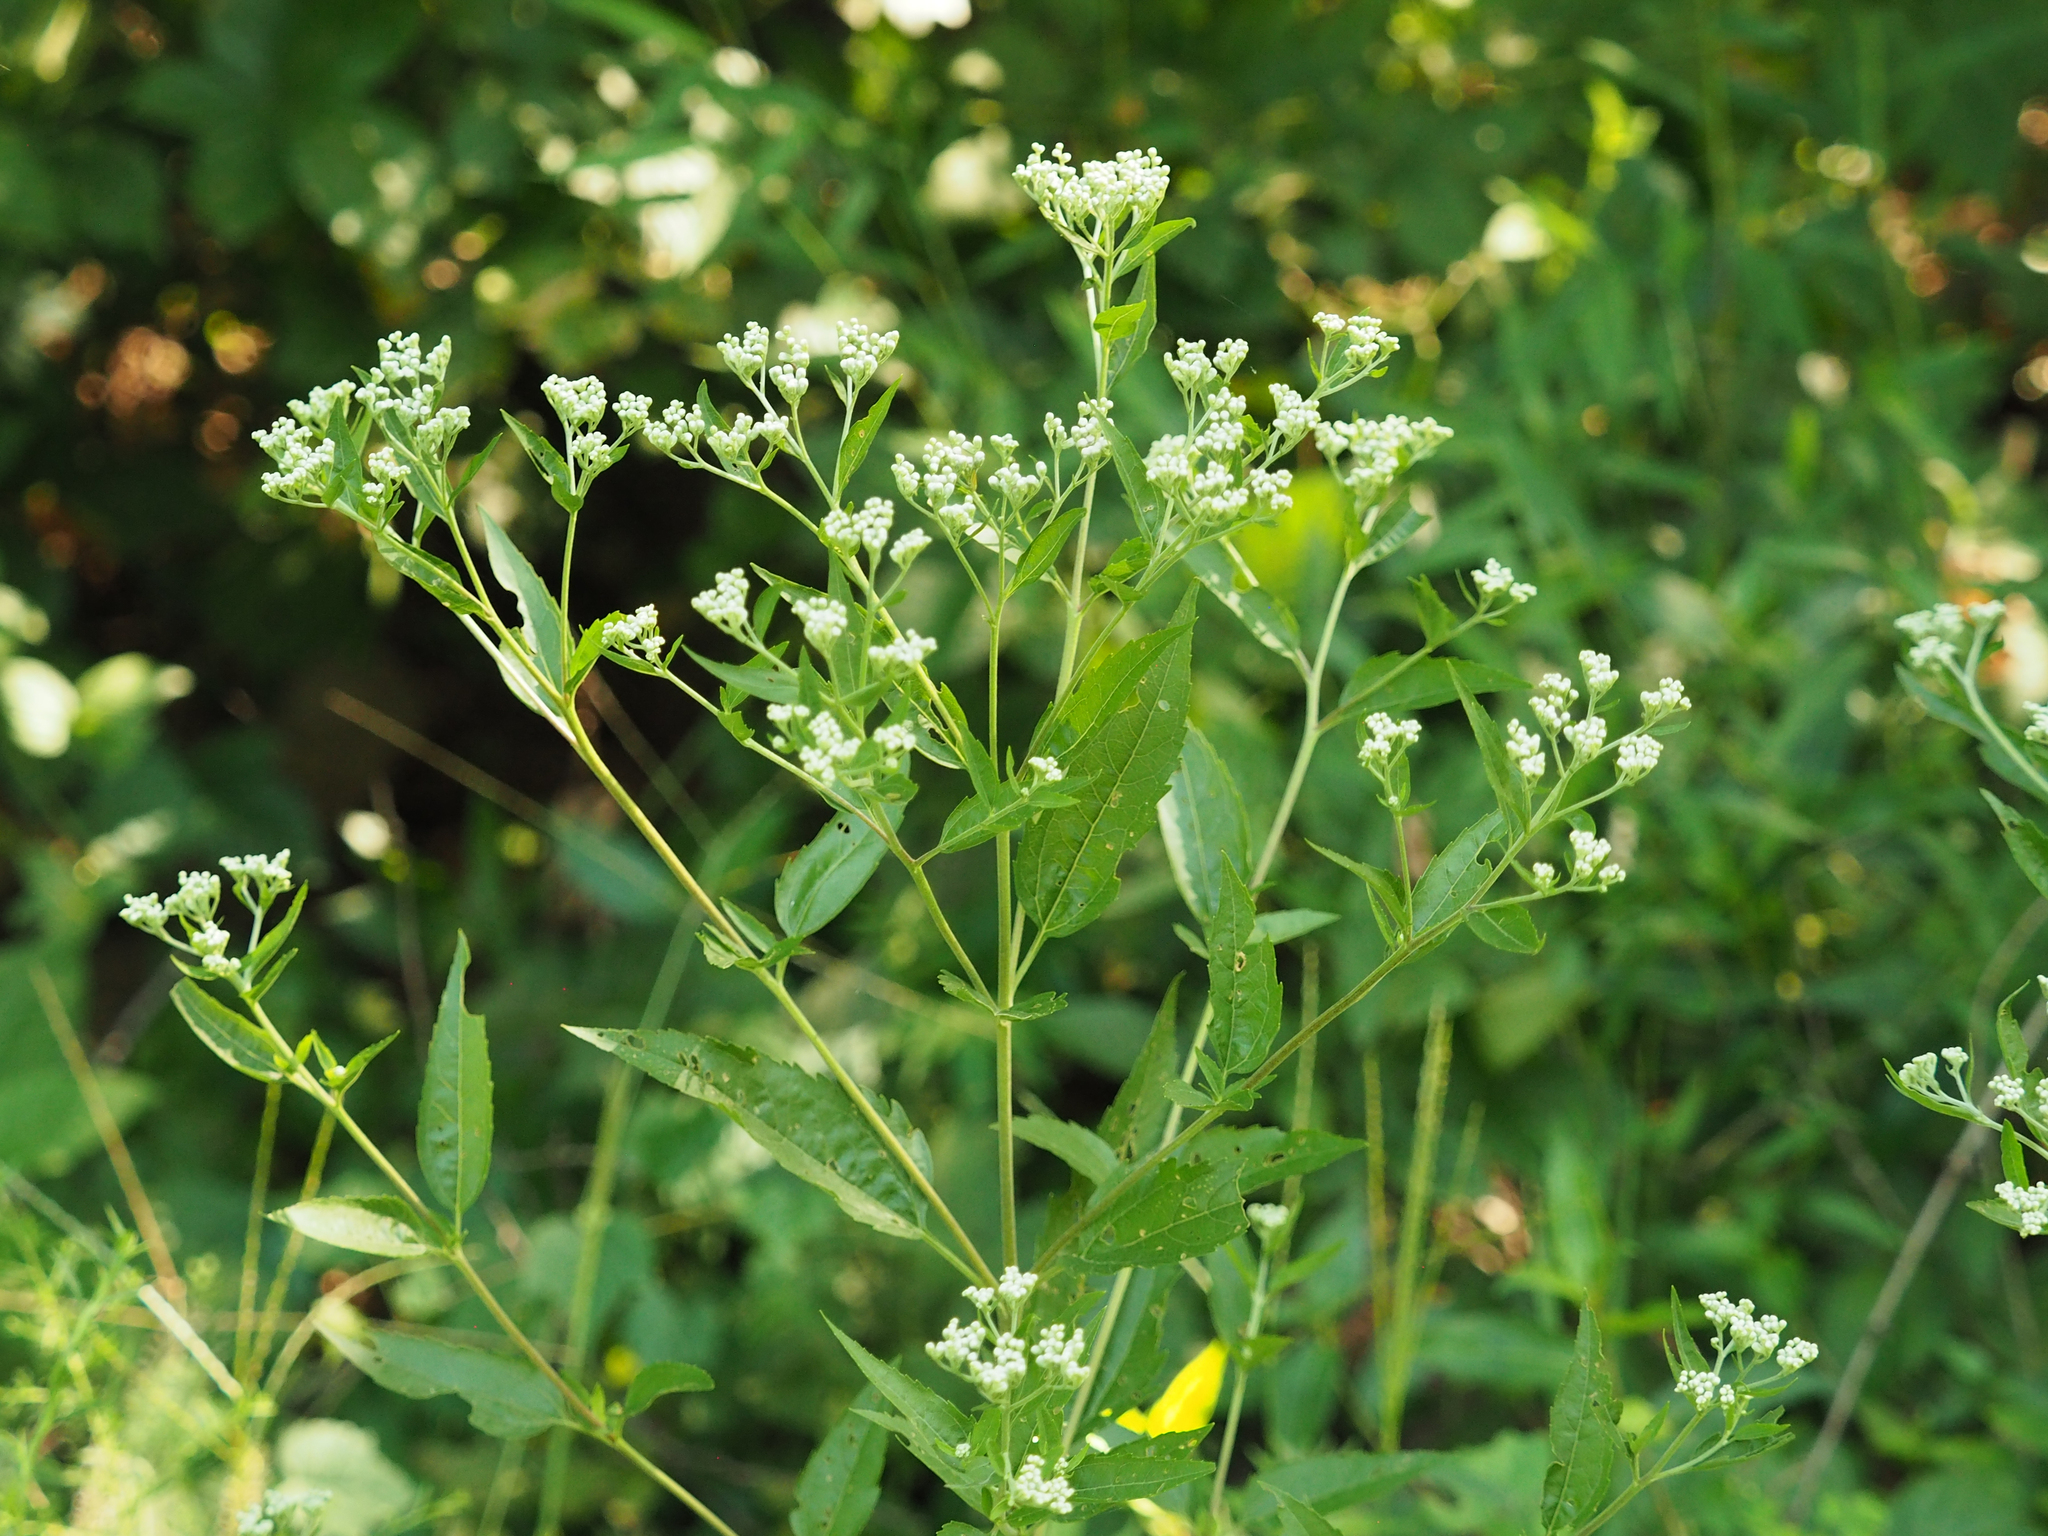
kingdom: Plantae
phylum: Tracheophyta
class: Magnoliopsida
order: Asterales
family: Asteraceae
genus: Eupatorium
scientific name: Eupatorium serotinum
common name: Late boneset
